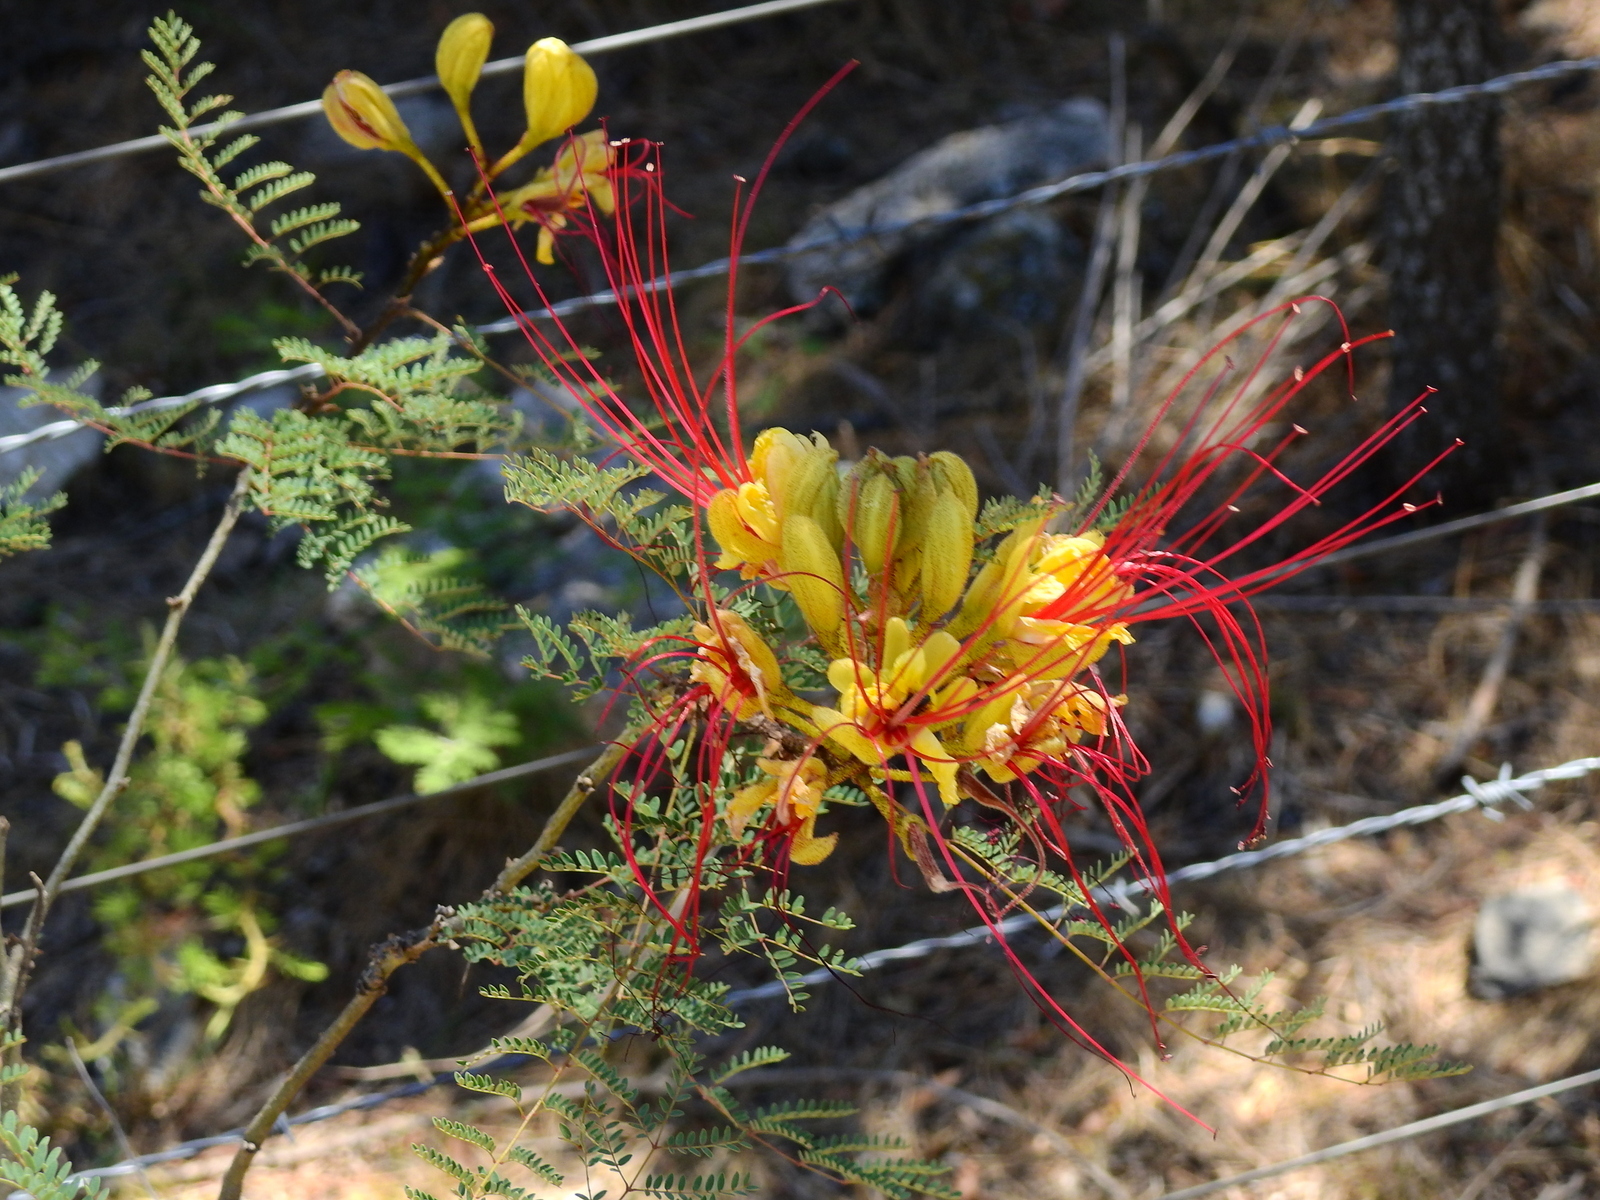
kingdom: Plantae
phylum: Tracheophyta
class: Magnoliopsida
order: Fabales
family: Fabaceae
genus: Erythrostemon
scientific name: Erythrostemon gilliesii
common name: Bird-of-paradise shrub
